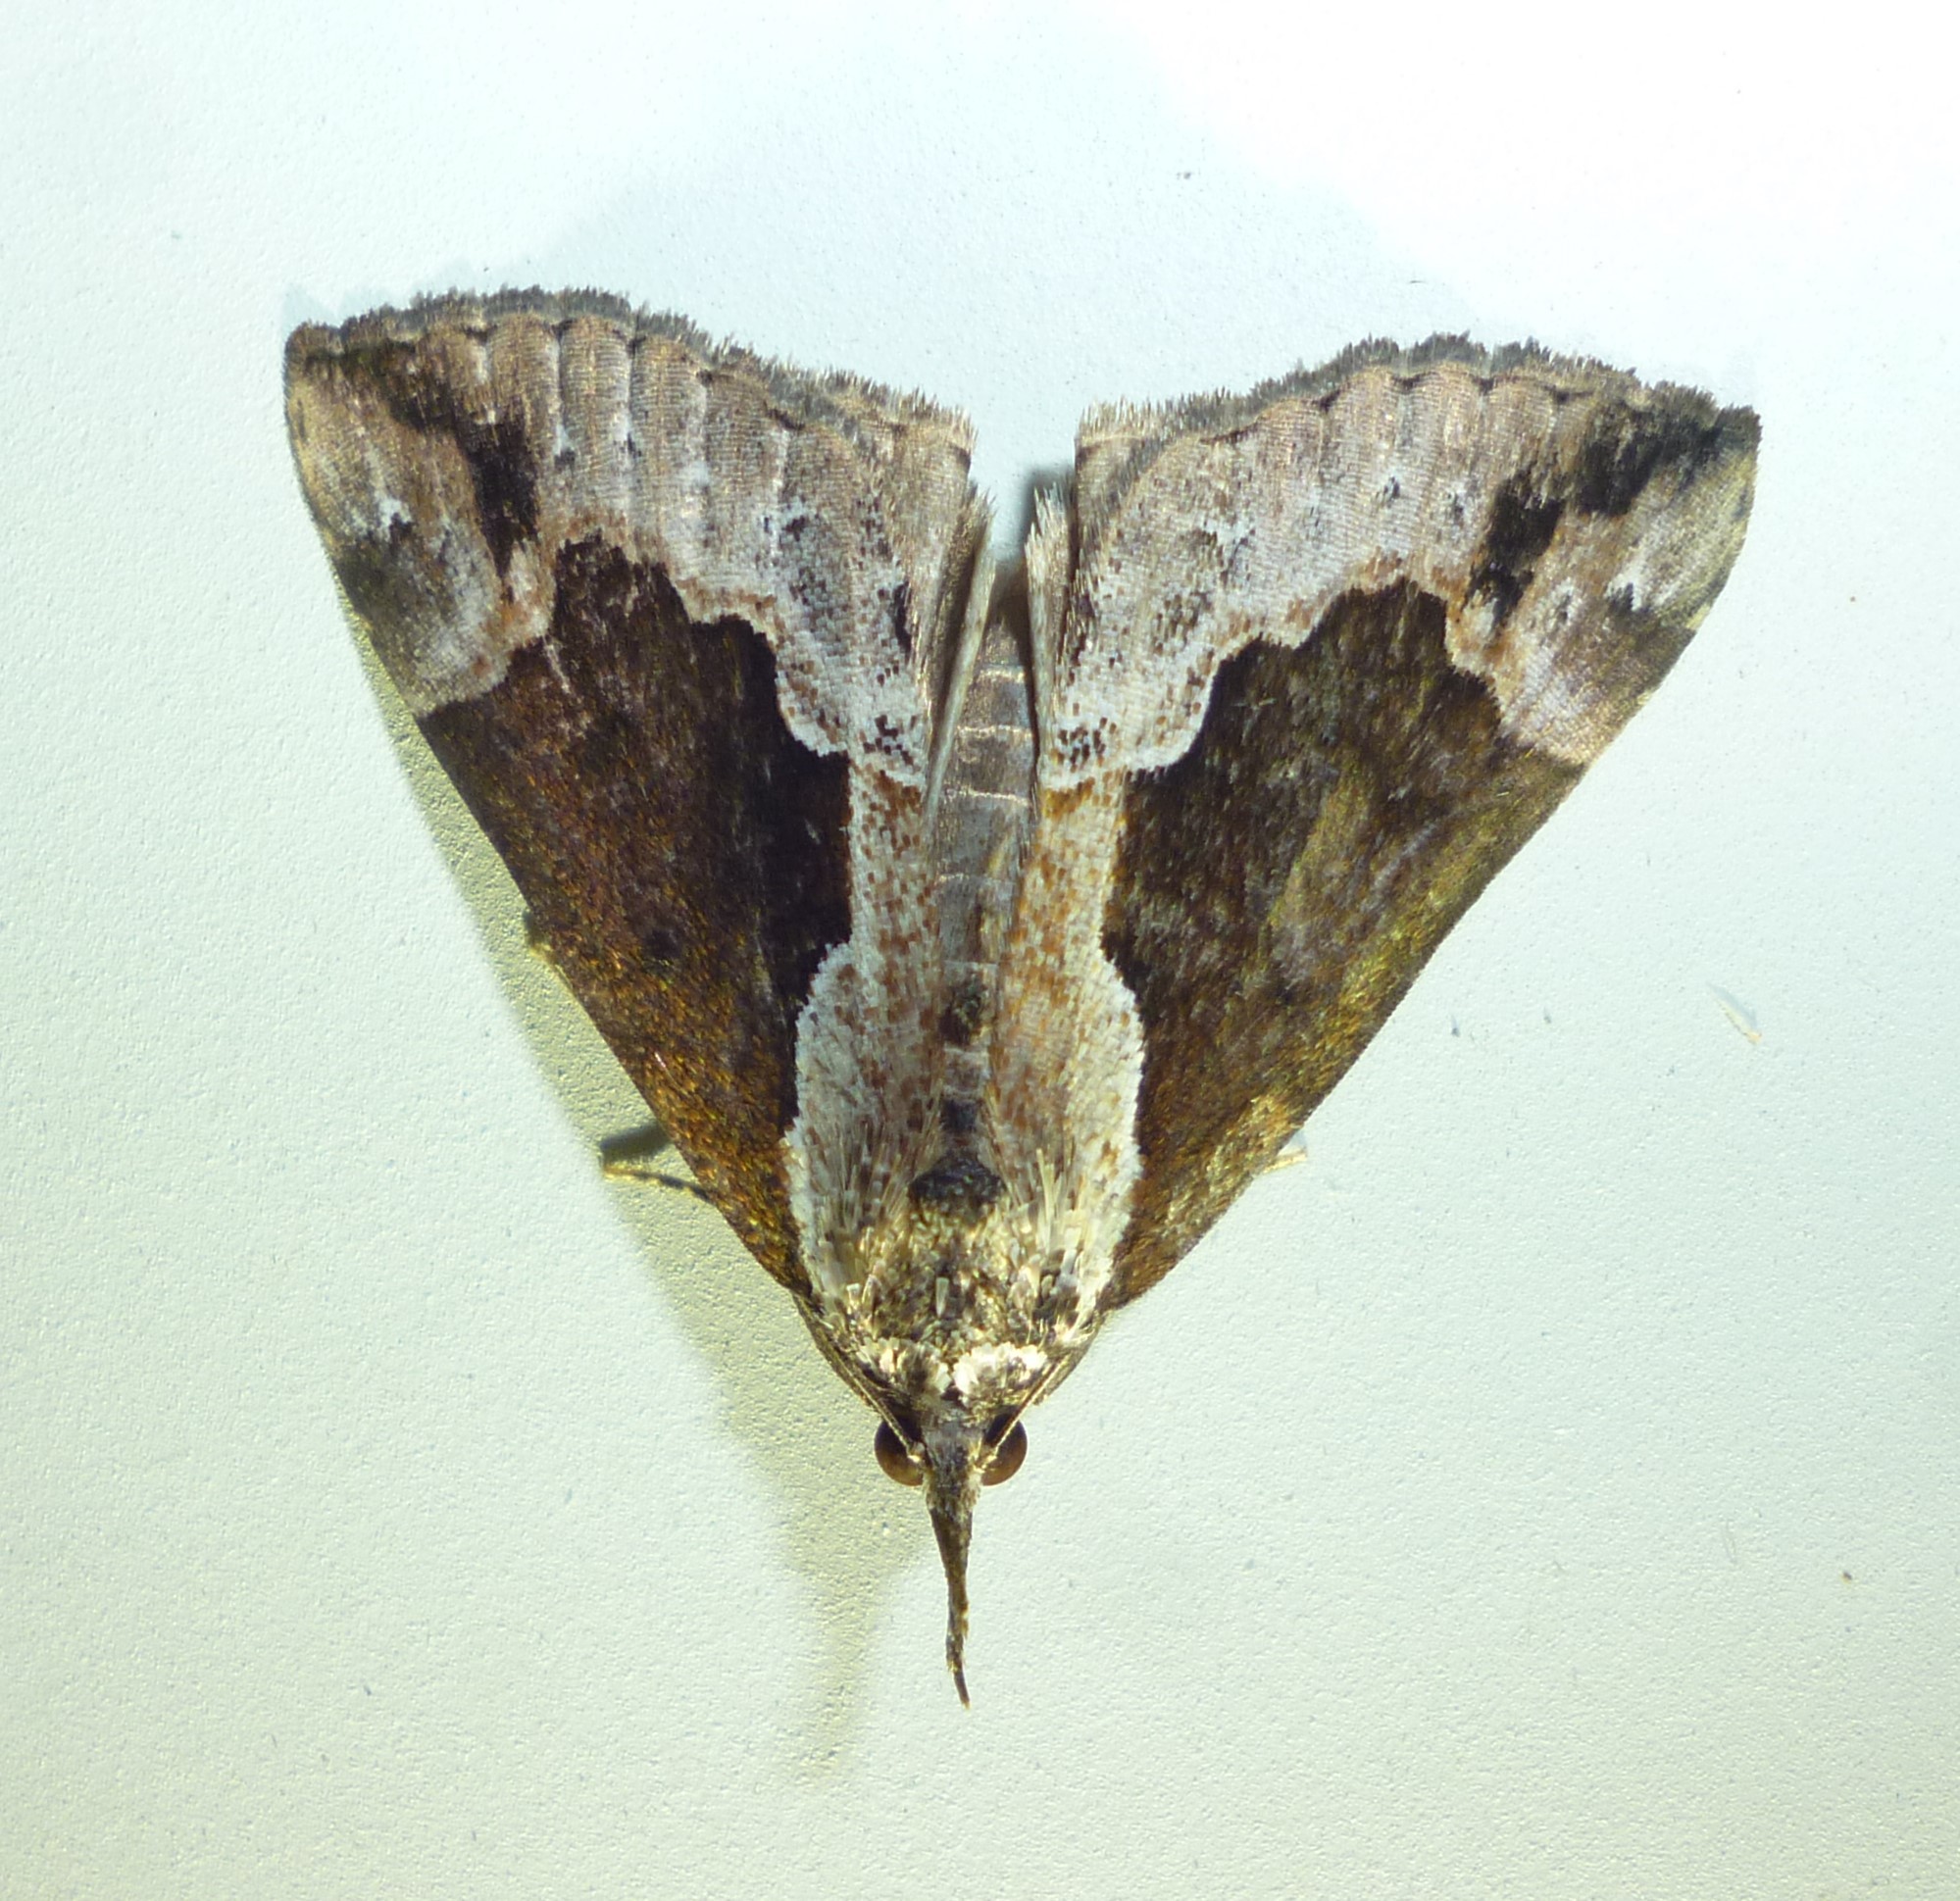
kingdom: Animalia
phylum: Arthropoda
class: Insecta
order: Lepidoptera
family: Erebidae
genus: Hypena
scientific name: Hypena baltimoralis
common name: Baltimore snout
